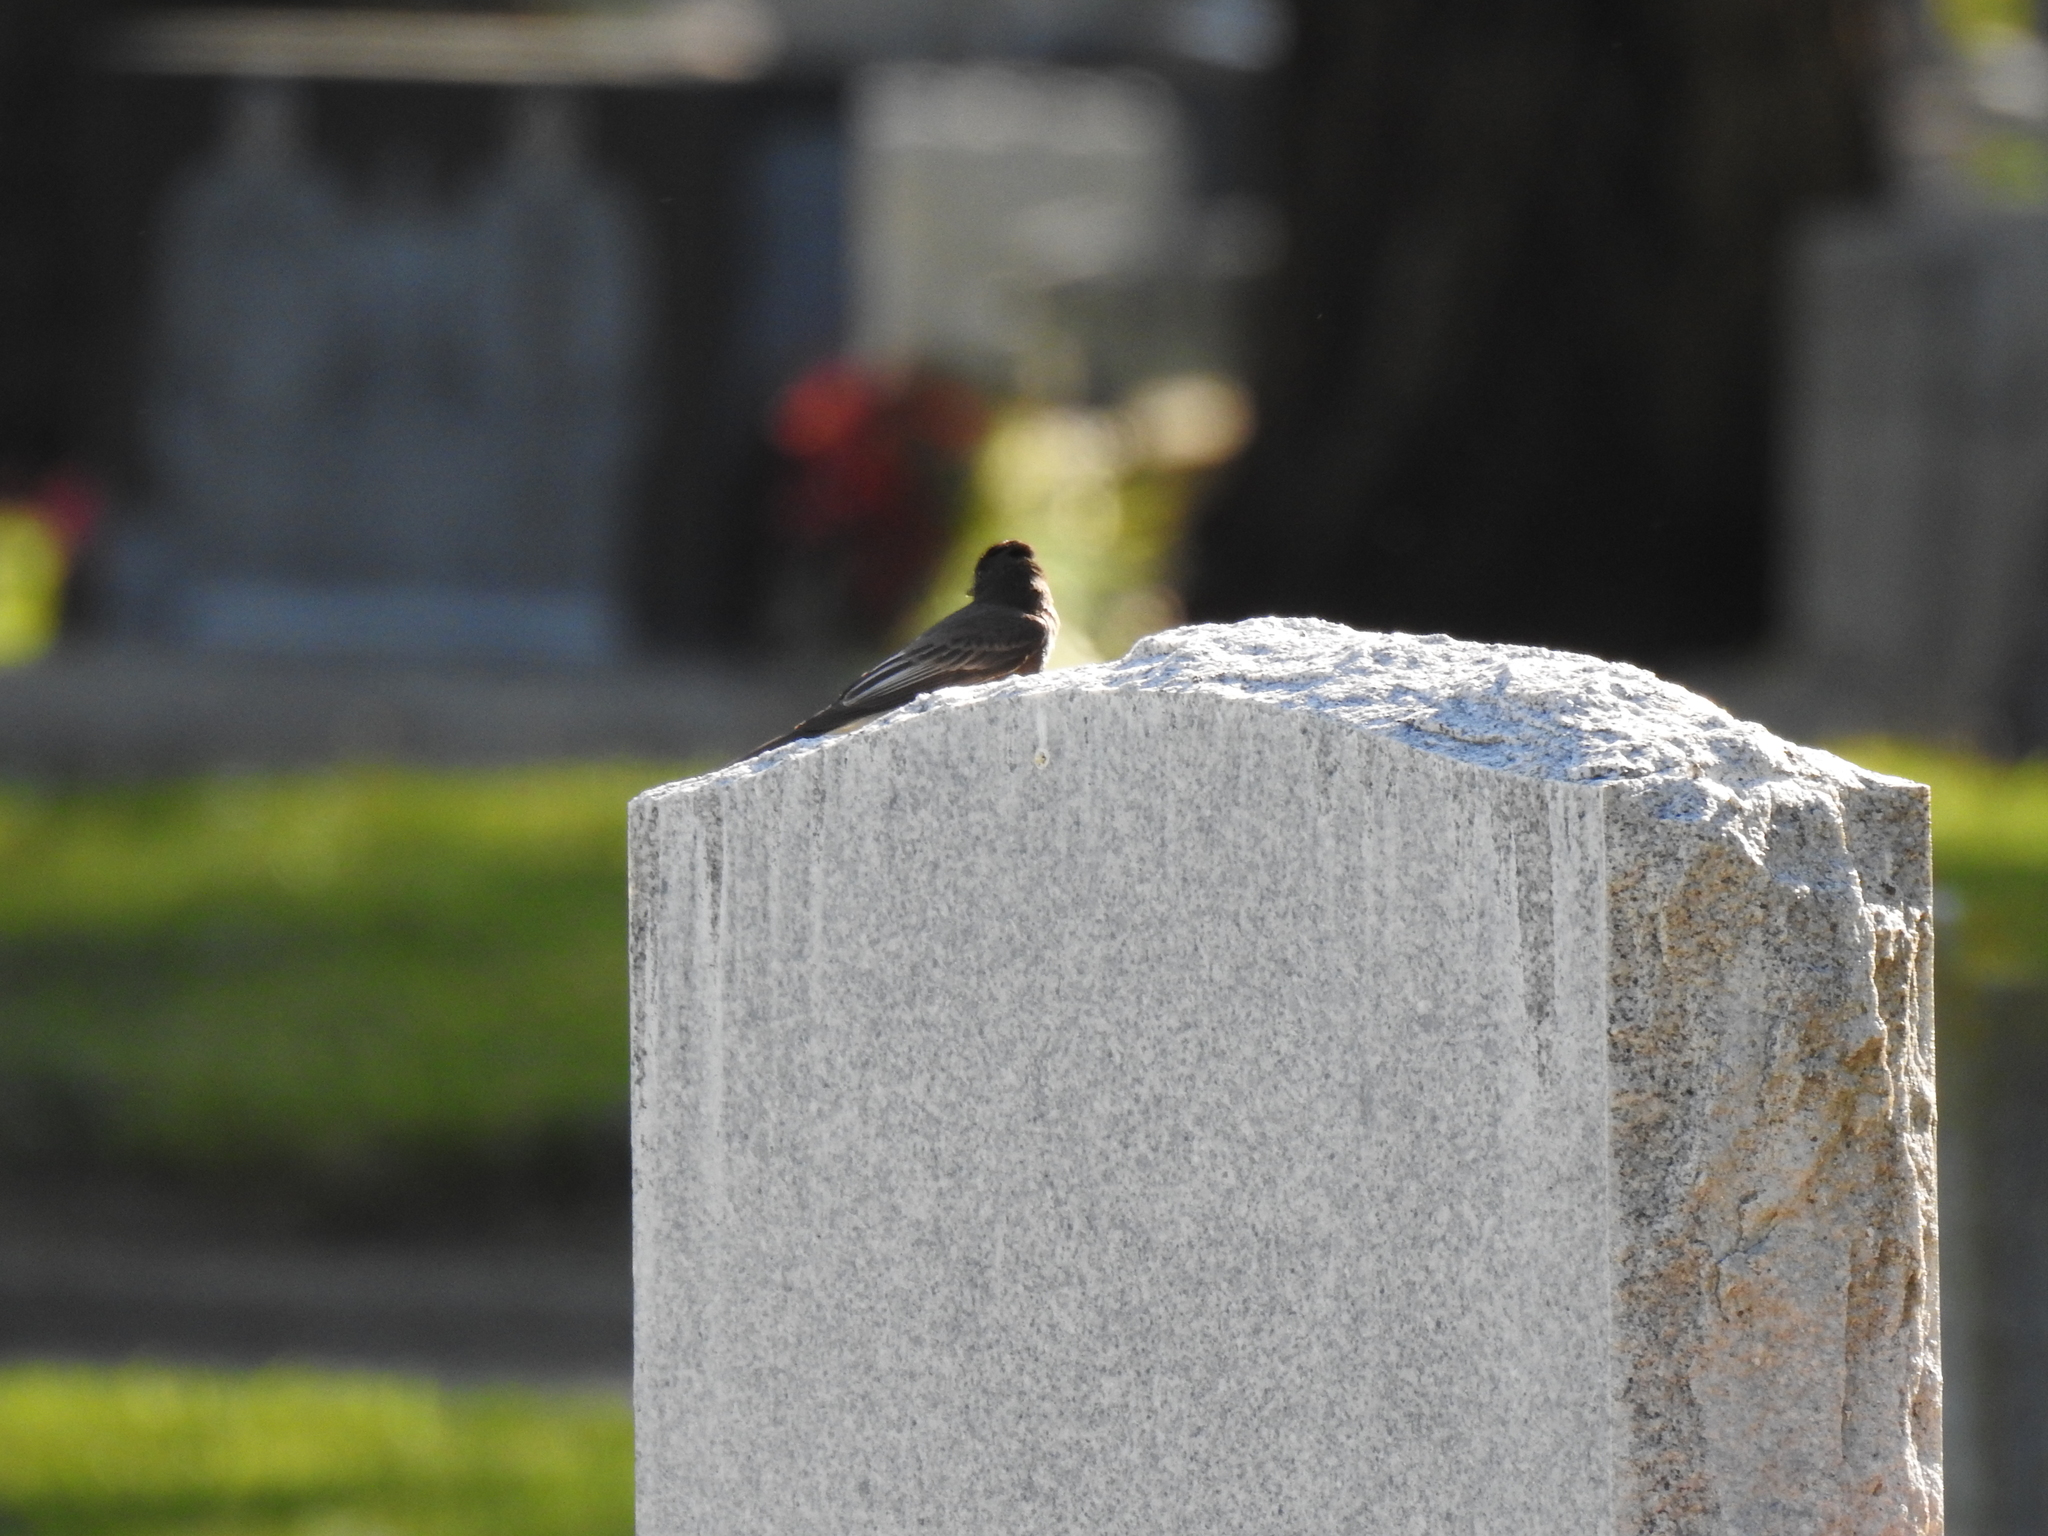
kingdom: Animalia
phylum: Chordata
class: Aves
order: Passeriformes
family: Tyrannidae
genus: Sayornis
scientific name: Sayornis nigricans
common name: Black phoebe
